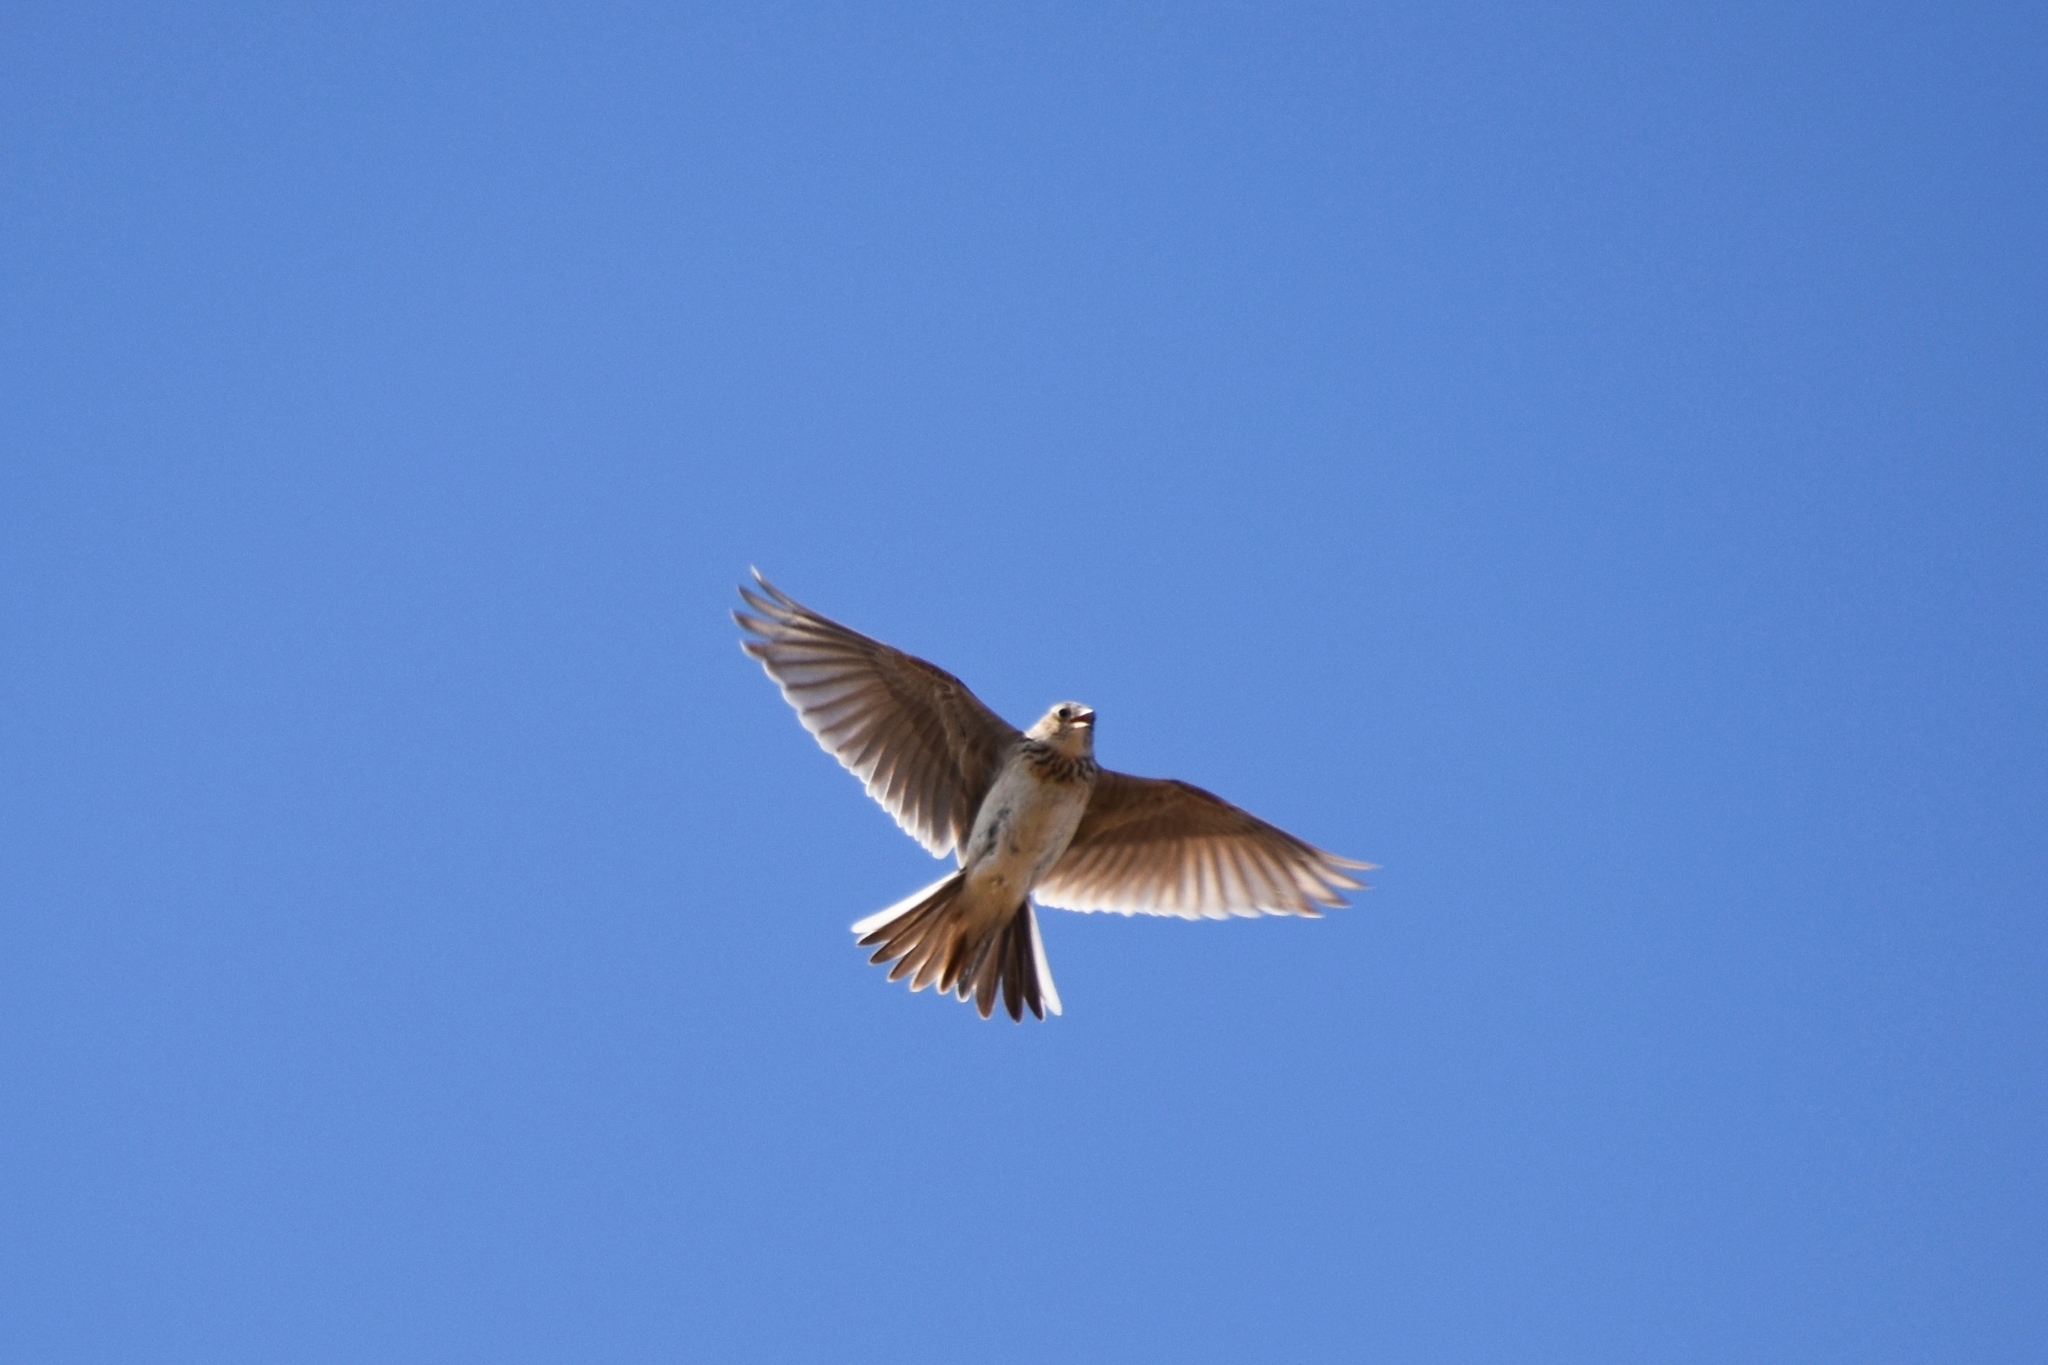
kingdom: Animalia
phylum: Chordata
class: Aves
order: Passeriformes
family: Alaudidae
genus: Alauda
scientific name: Alauda arvensis
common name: Eurasian skylark
